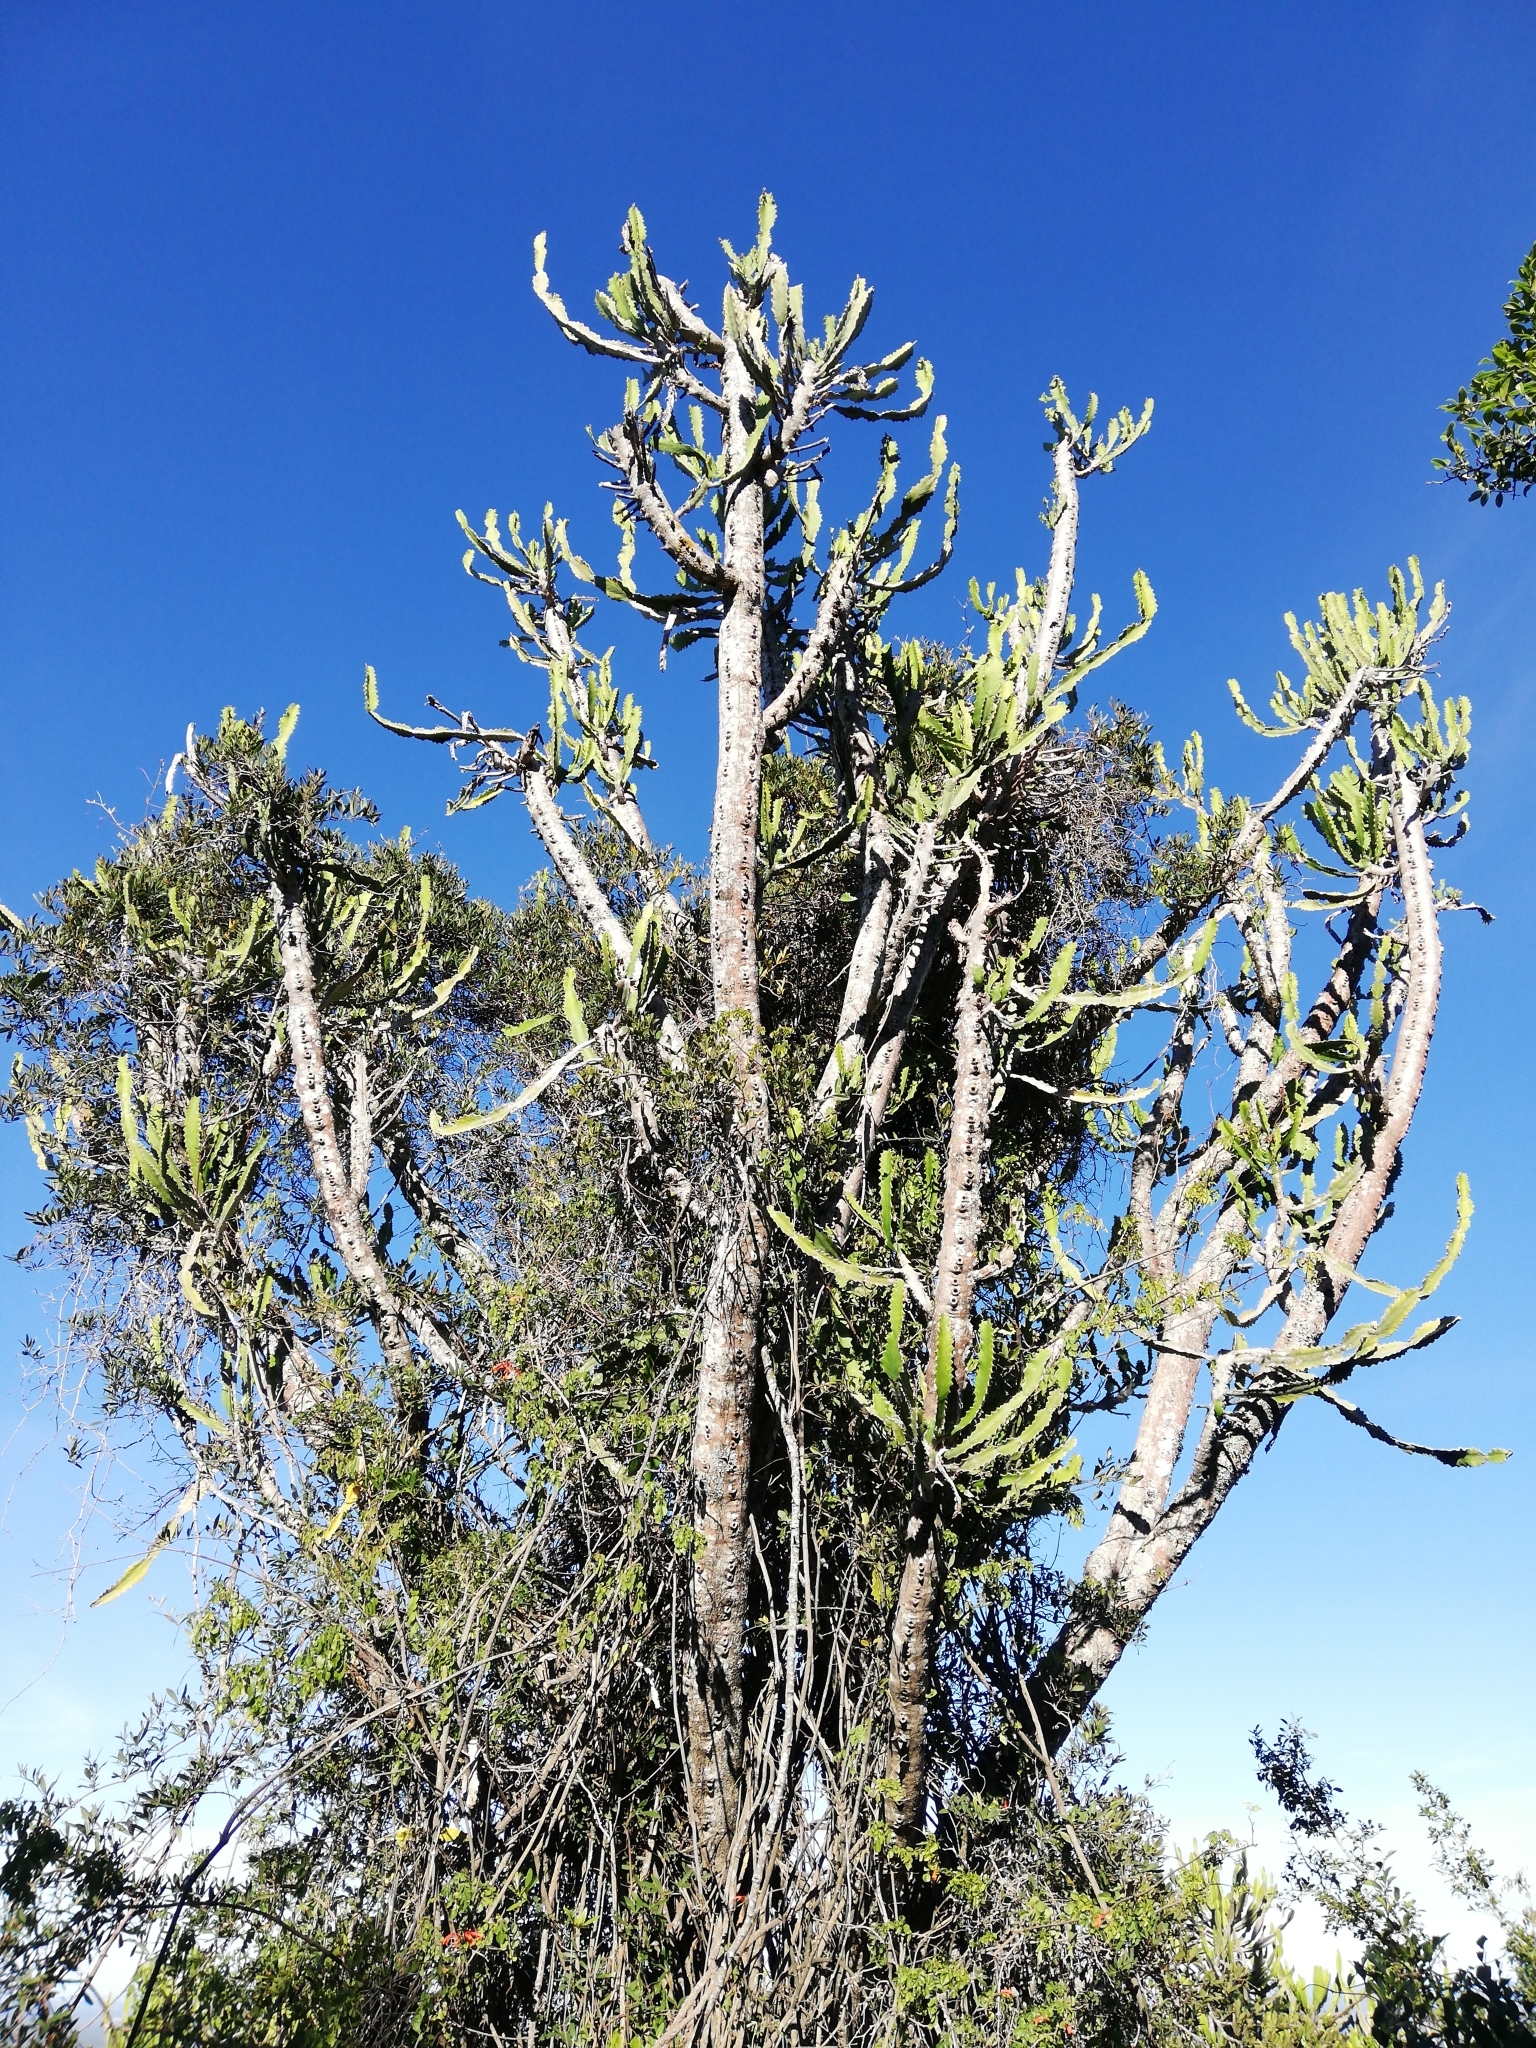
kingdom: Plantae
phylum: Tracheophyta
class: Magnoliopsida
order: Malpighiales
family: Euphorbiaceae
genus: Euphorbia
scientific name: Euphorbia triangularis
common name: Chandelier tree
